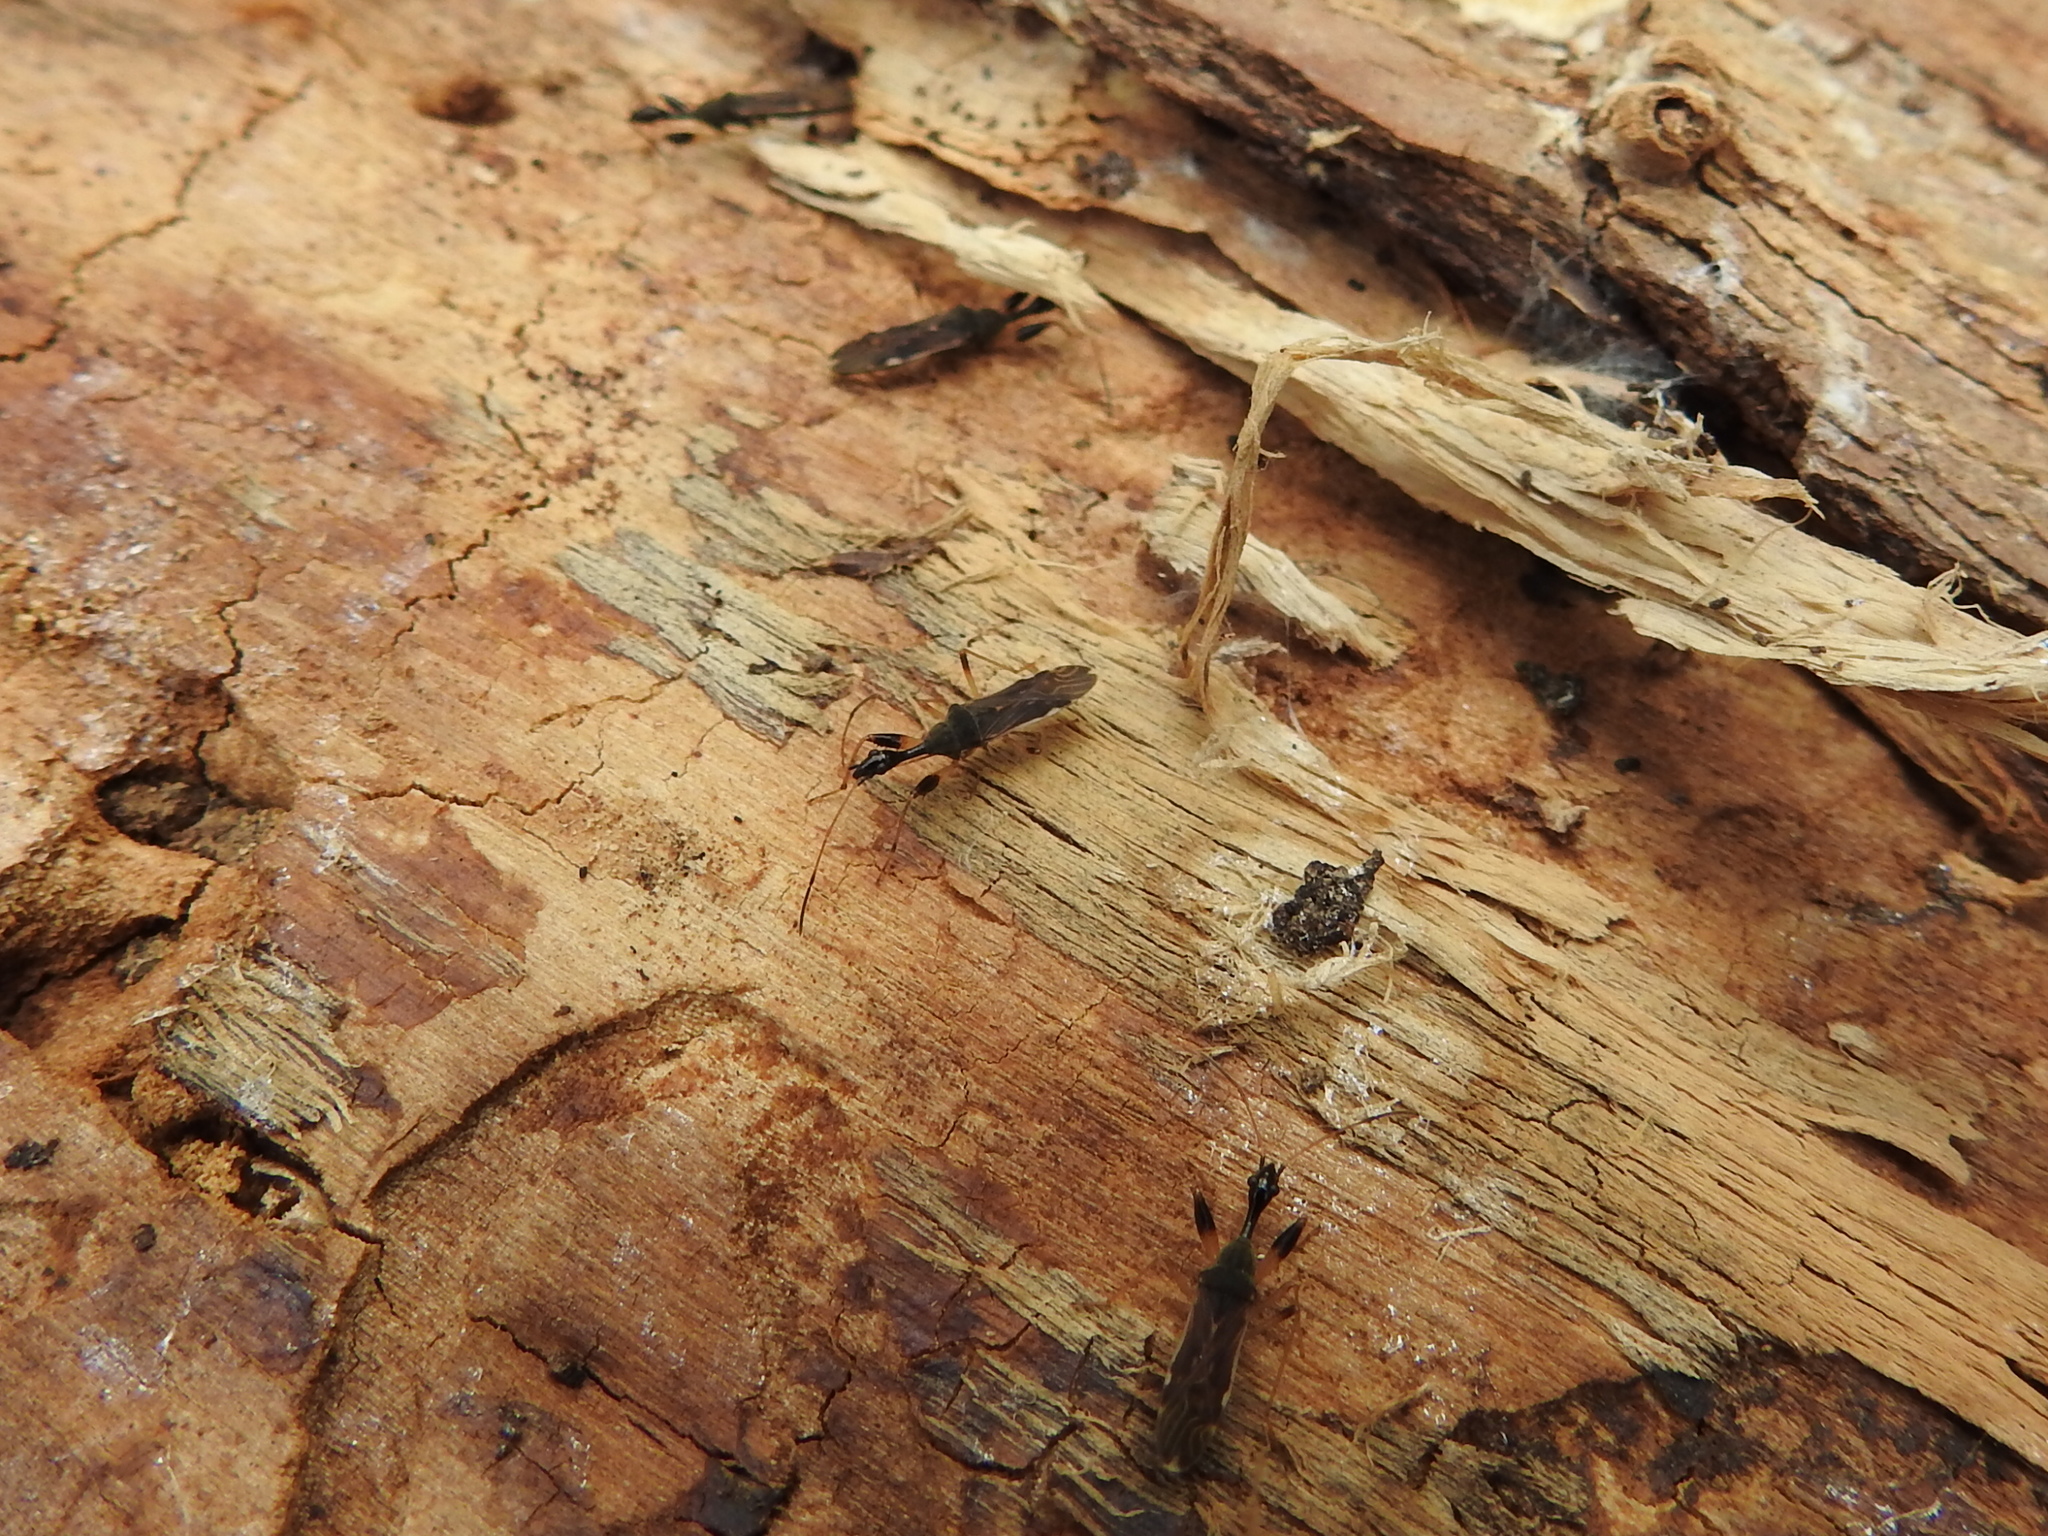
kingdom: Animalia
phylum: Arthropoda
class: Insecta
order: Hemiptera
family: Rhyparochromidae
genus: Myodocha
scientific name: Myodocha serripes
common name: Long-necked seed bug
